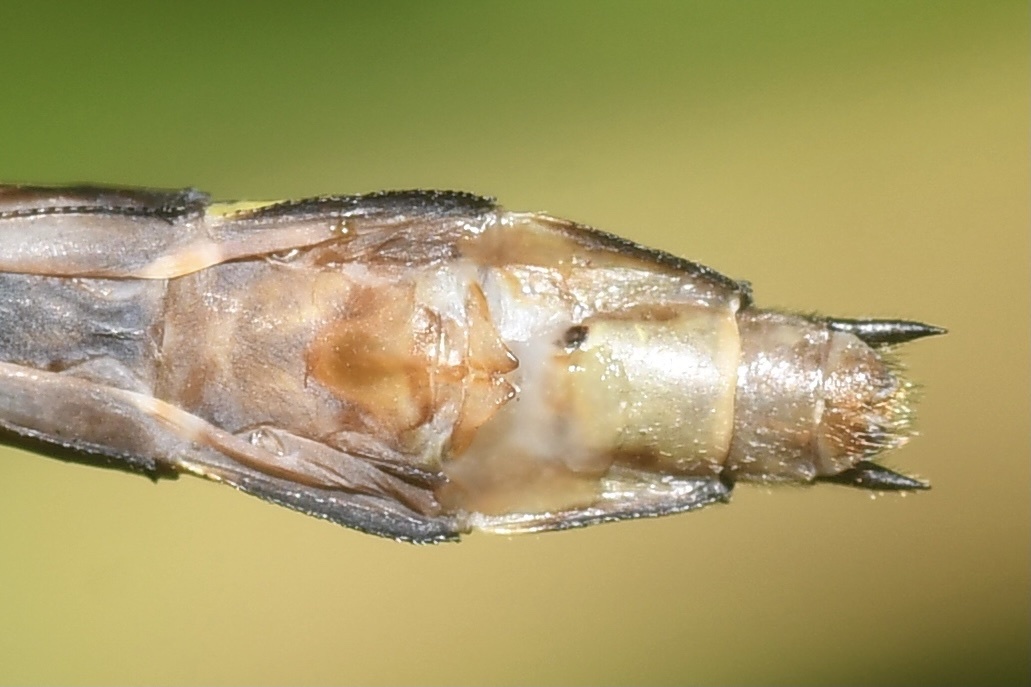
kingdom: Animalia
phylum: Arthropoda
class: Insecta
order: Odonata
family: Gomphidae
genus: Stylurus
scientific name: Stylurus amnicola
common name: Riverine clubtail
